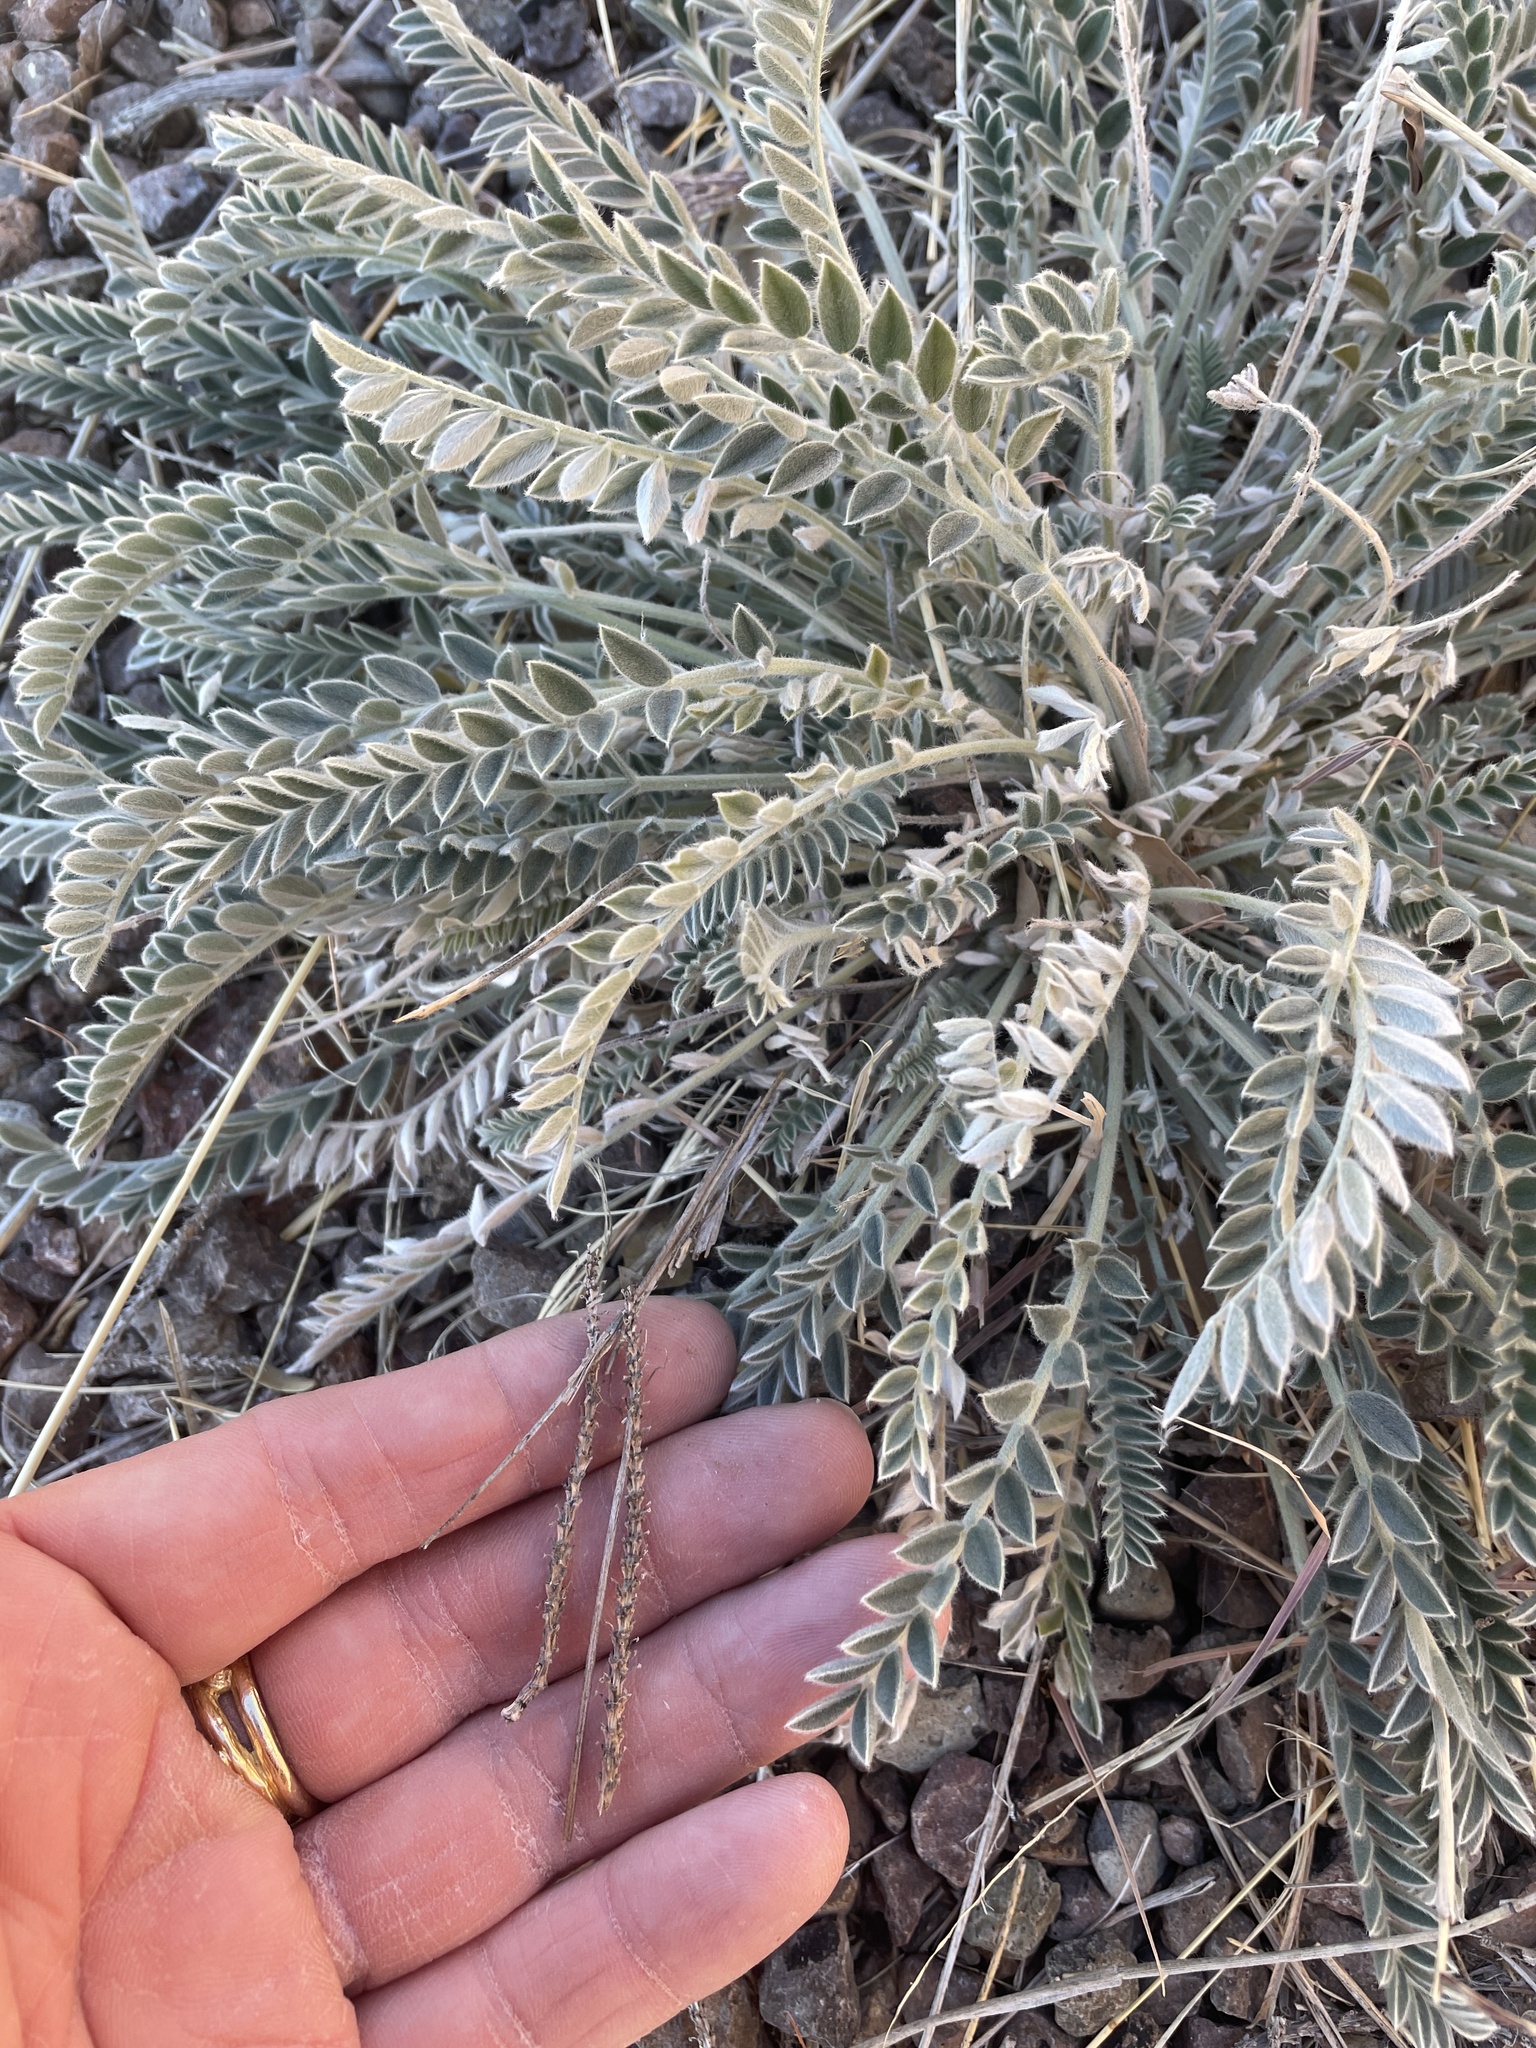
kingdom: Plantae
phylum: Tracheophyta
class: Magnoliopsida
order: Fabales
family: Fabaceae
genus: Astragalus
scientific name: Astragalus mollissimus
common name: Woolly locoweed
